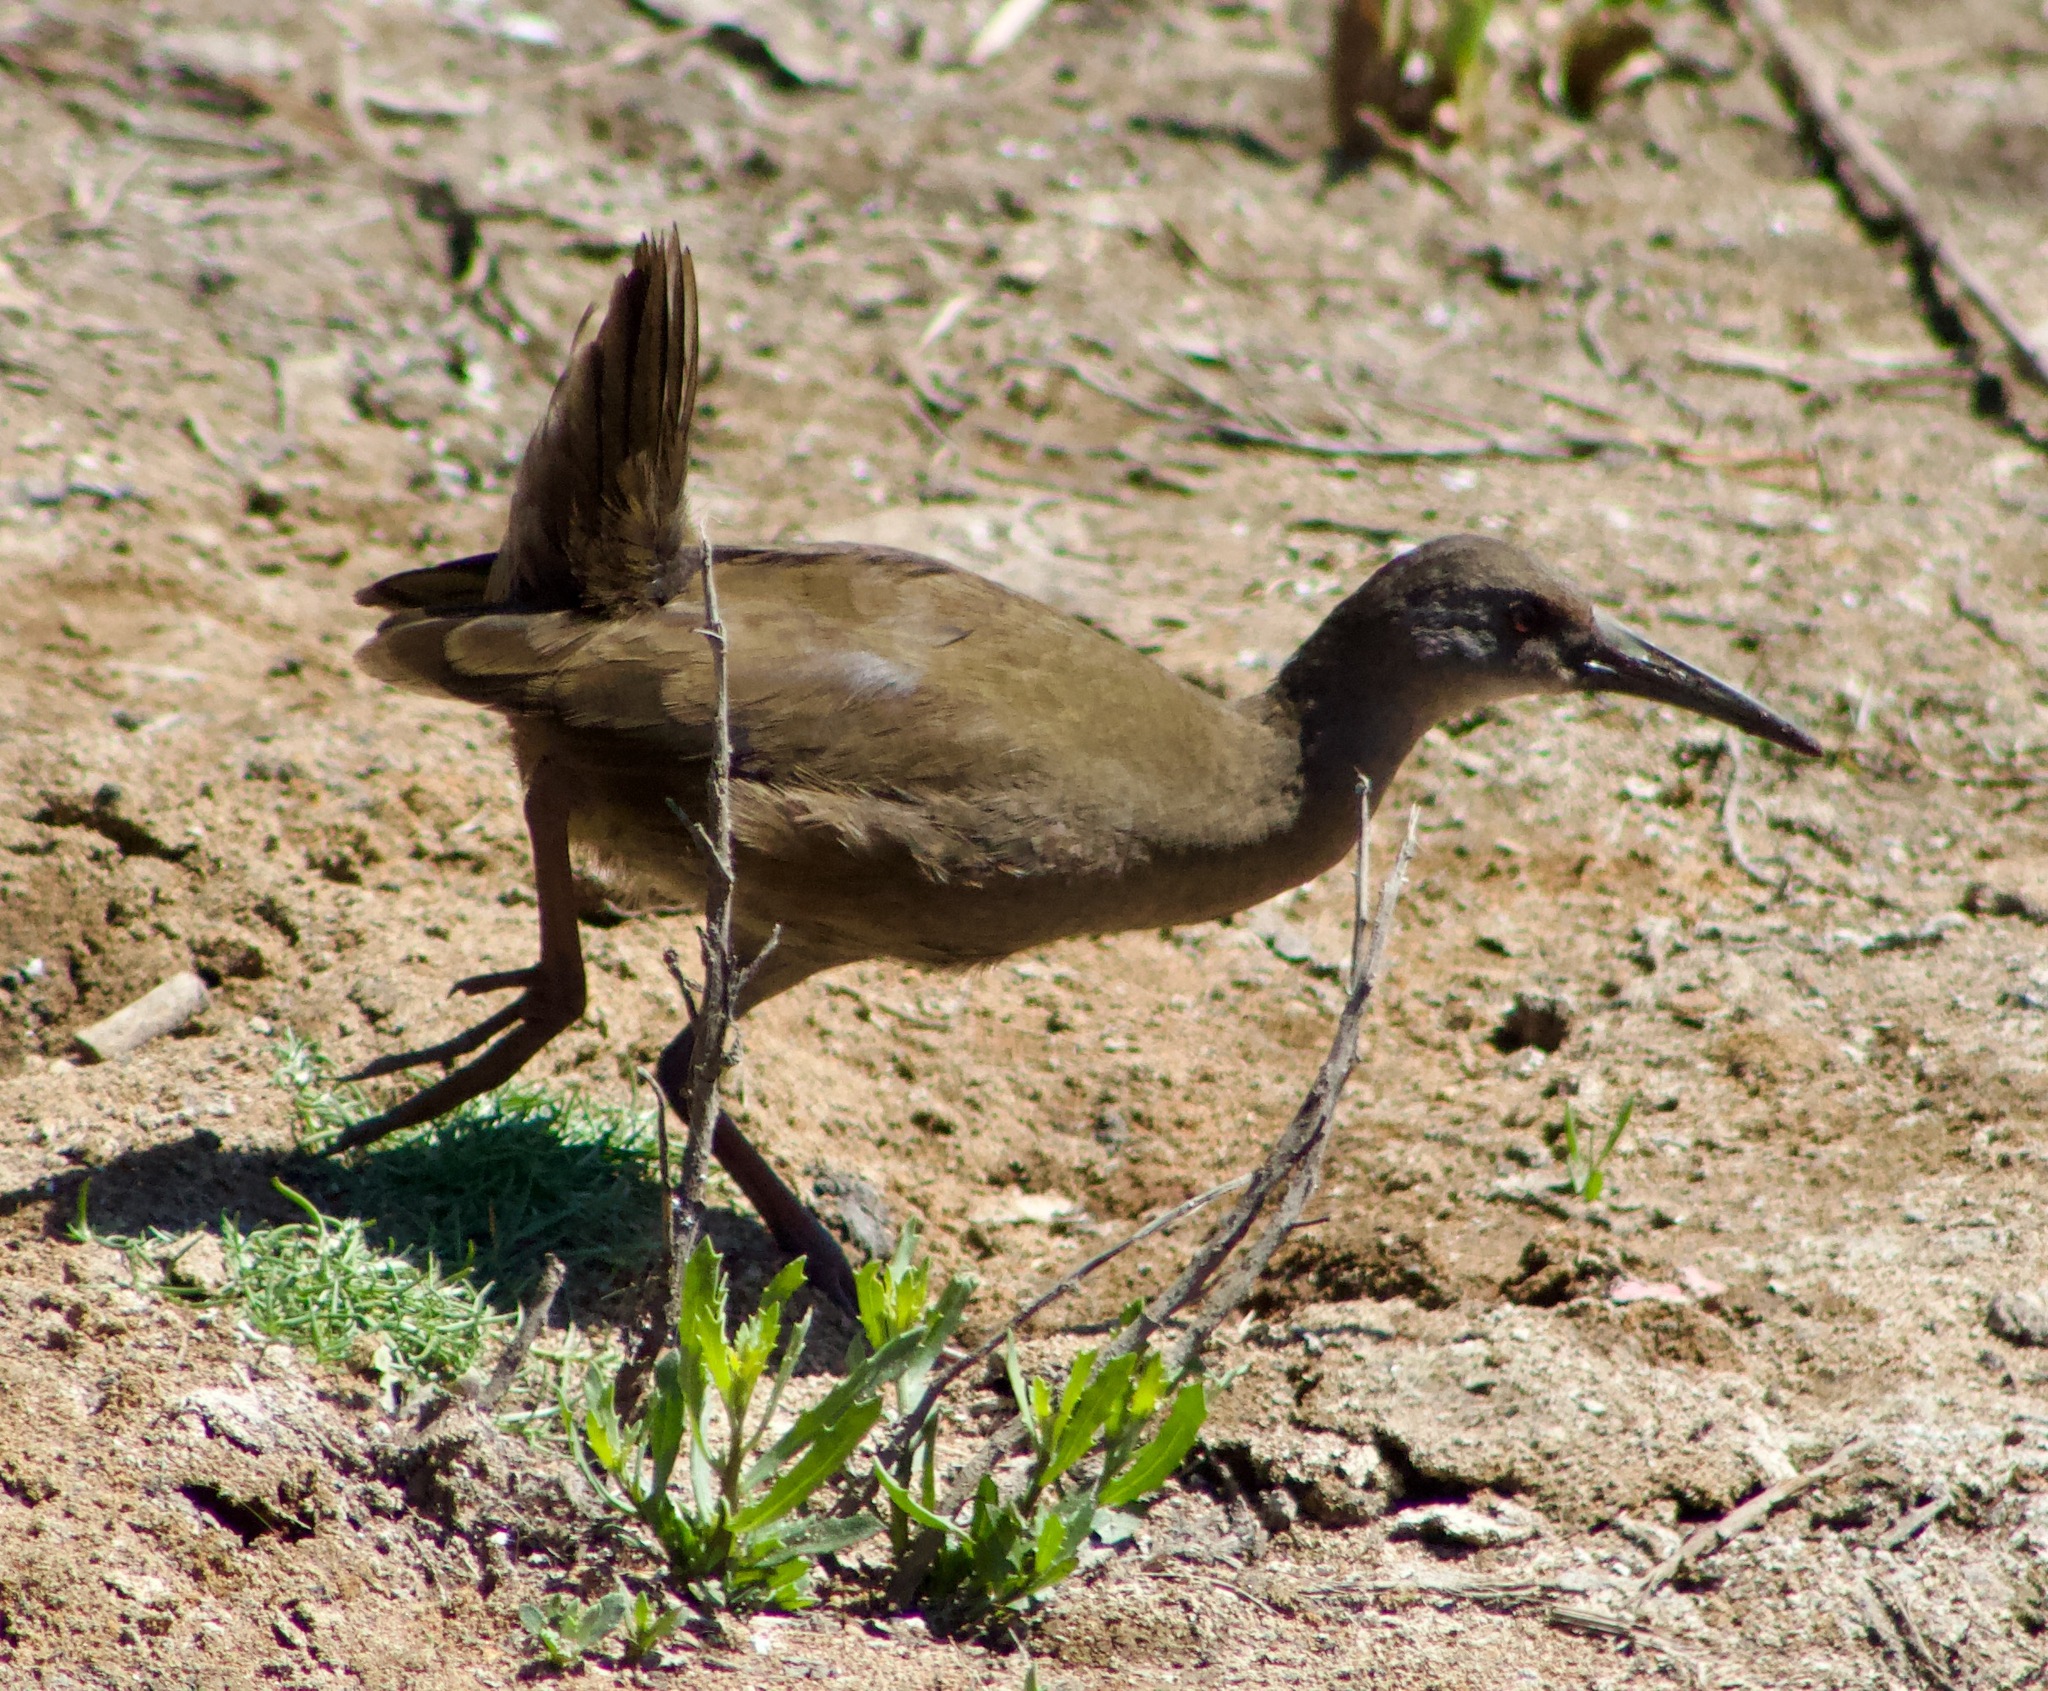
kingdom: Animalia
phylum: Chordata
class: Aves
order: Gruiformes
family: Rallidae
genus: Pardirallus
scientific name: Pardirallus sanguinolentus
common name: Plumbeous rail
